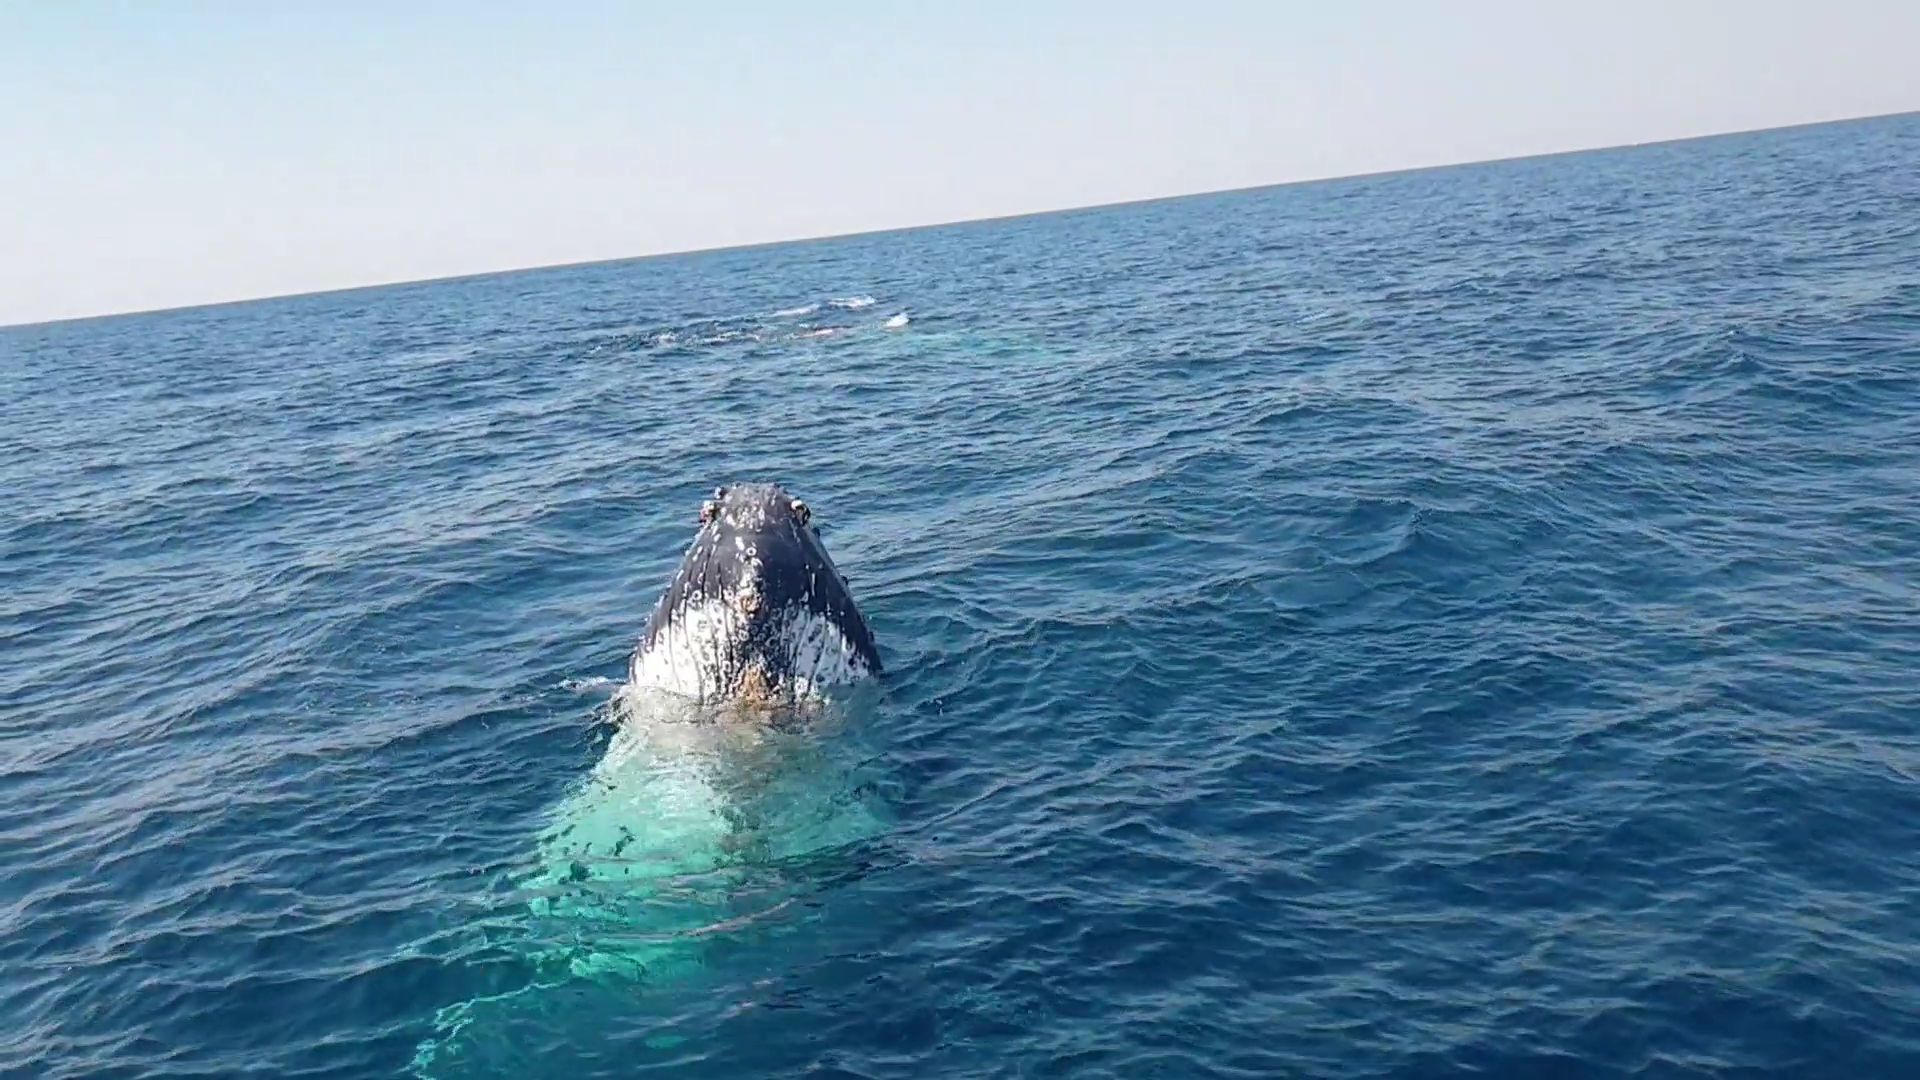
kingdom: Animalia
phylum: Chordata
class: Mammalia
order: Cetacea
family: Balaenopteridae
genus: Megaptera
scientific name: Megaptera novaeangliae
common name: Humpback whale
